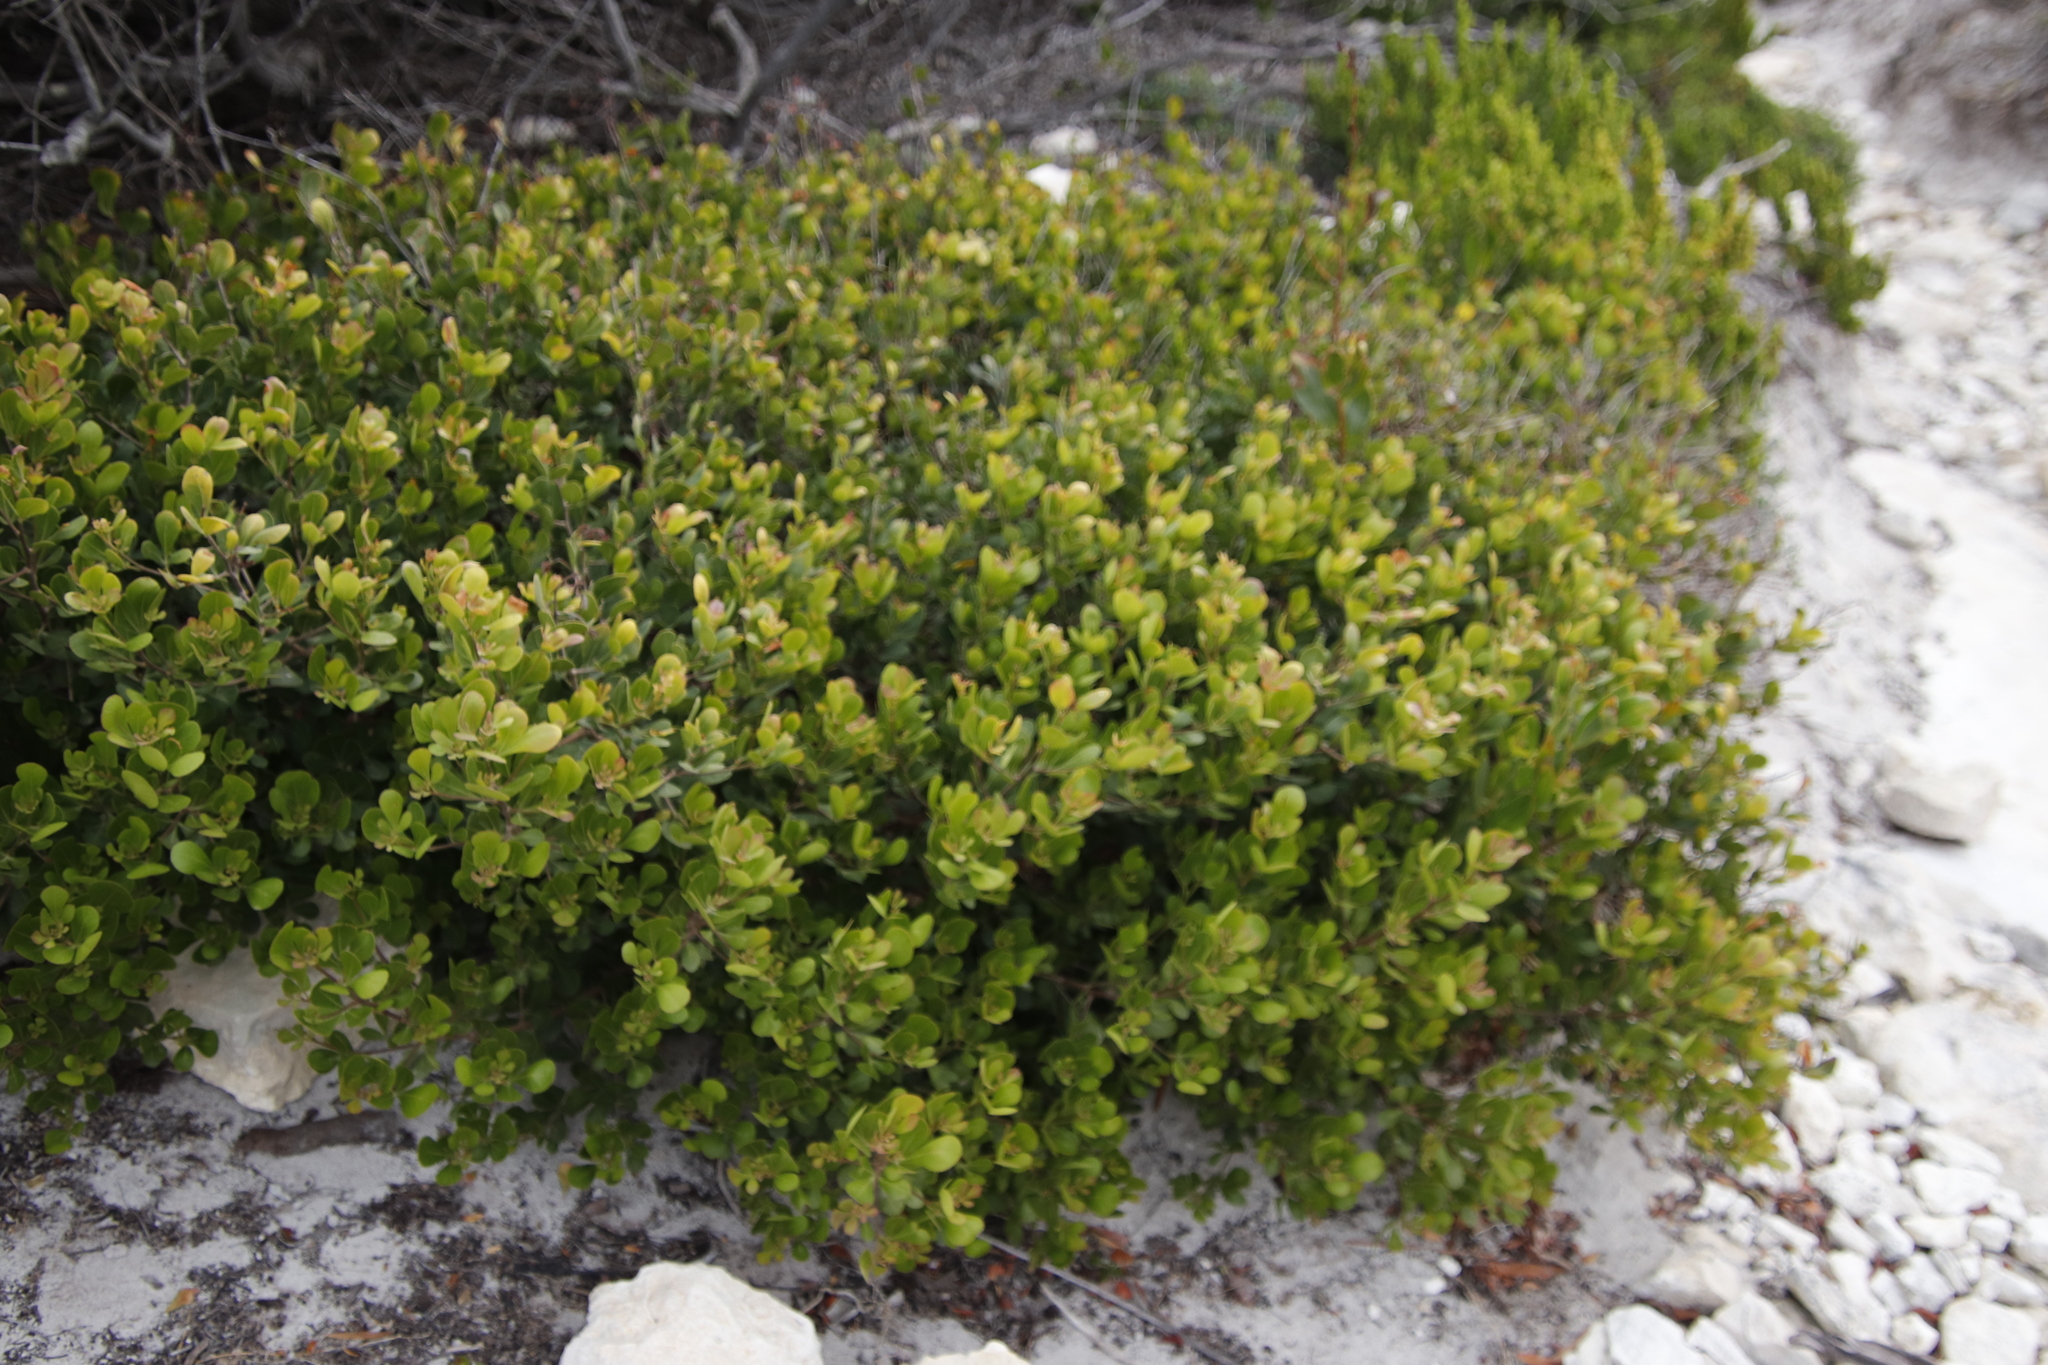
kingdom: Plantae
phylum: Tracheophyta
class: Magnoliopsida
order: Sapindales
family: Anacardiaceae
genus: Searsia
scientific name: Searsia lucida
